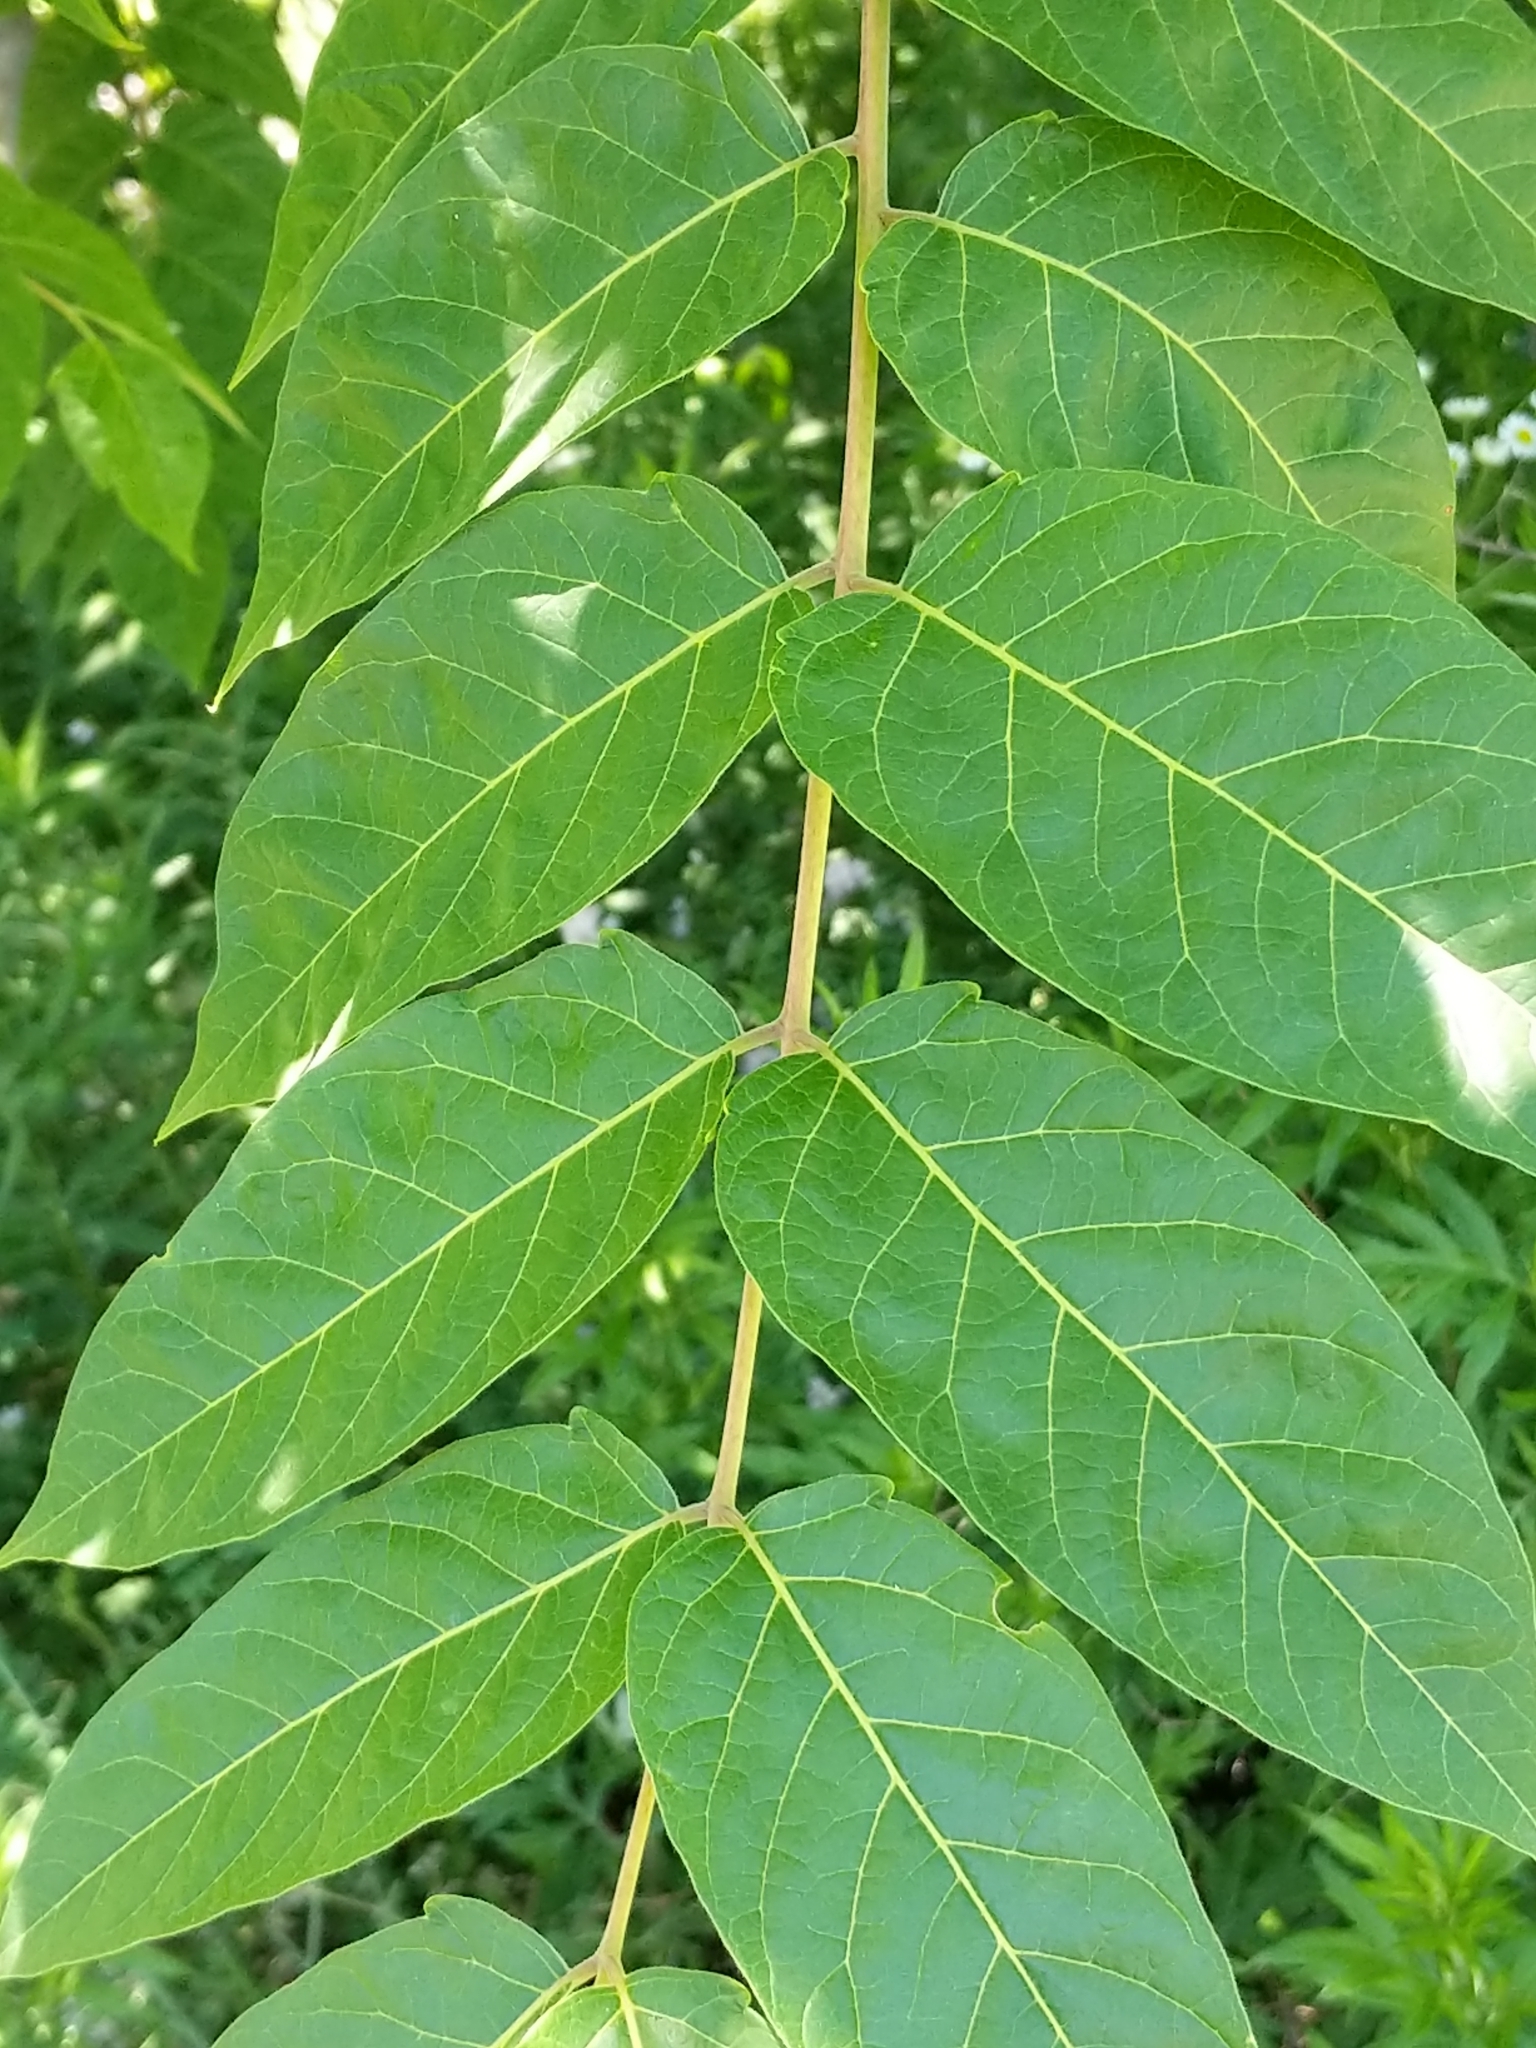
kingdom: Plantae
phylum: Tracheophyta
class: Magnoliopsida
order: Sapindales
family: Simaroubaceae
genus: Ailanthus
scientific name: Ailanthus altissima
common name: Tree-of-heaven
